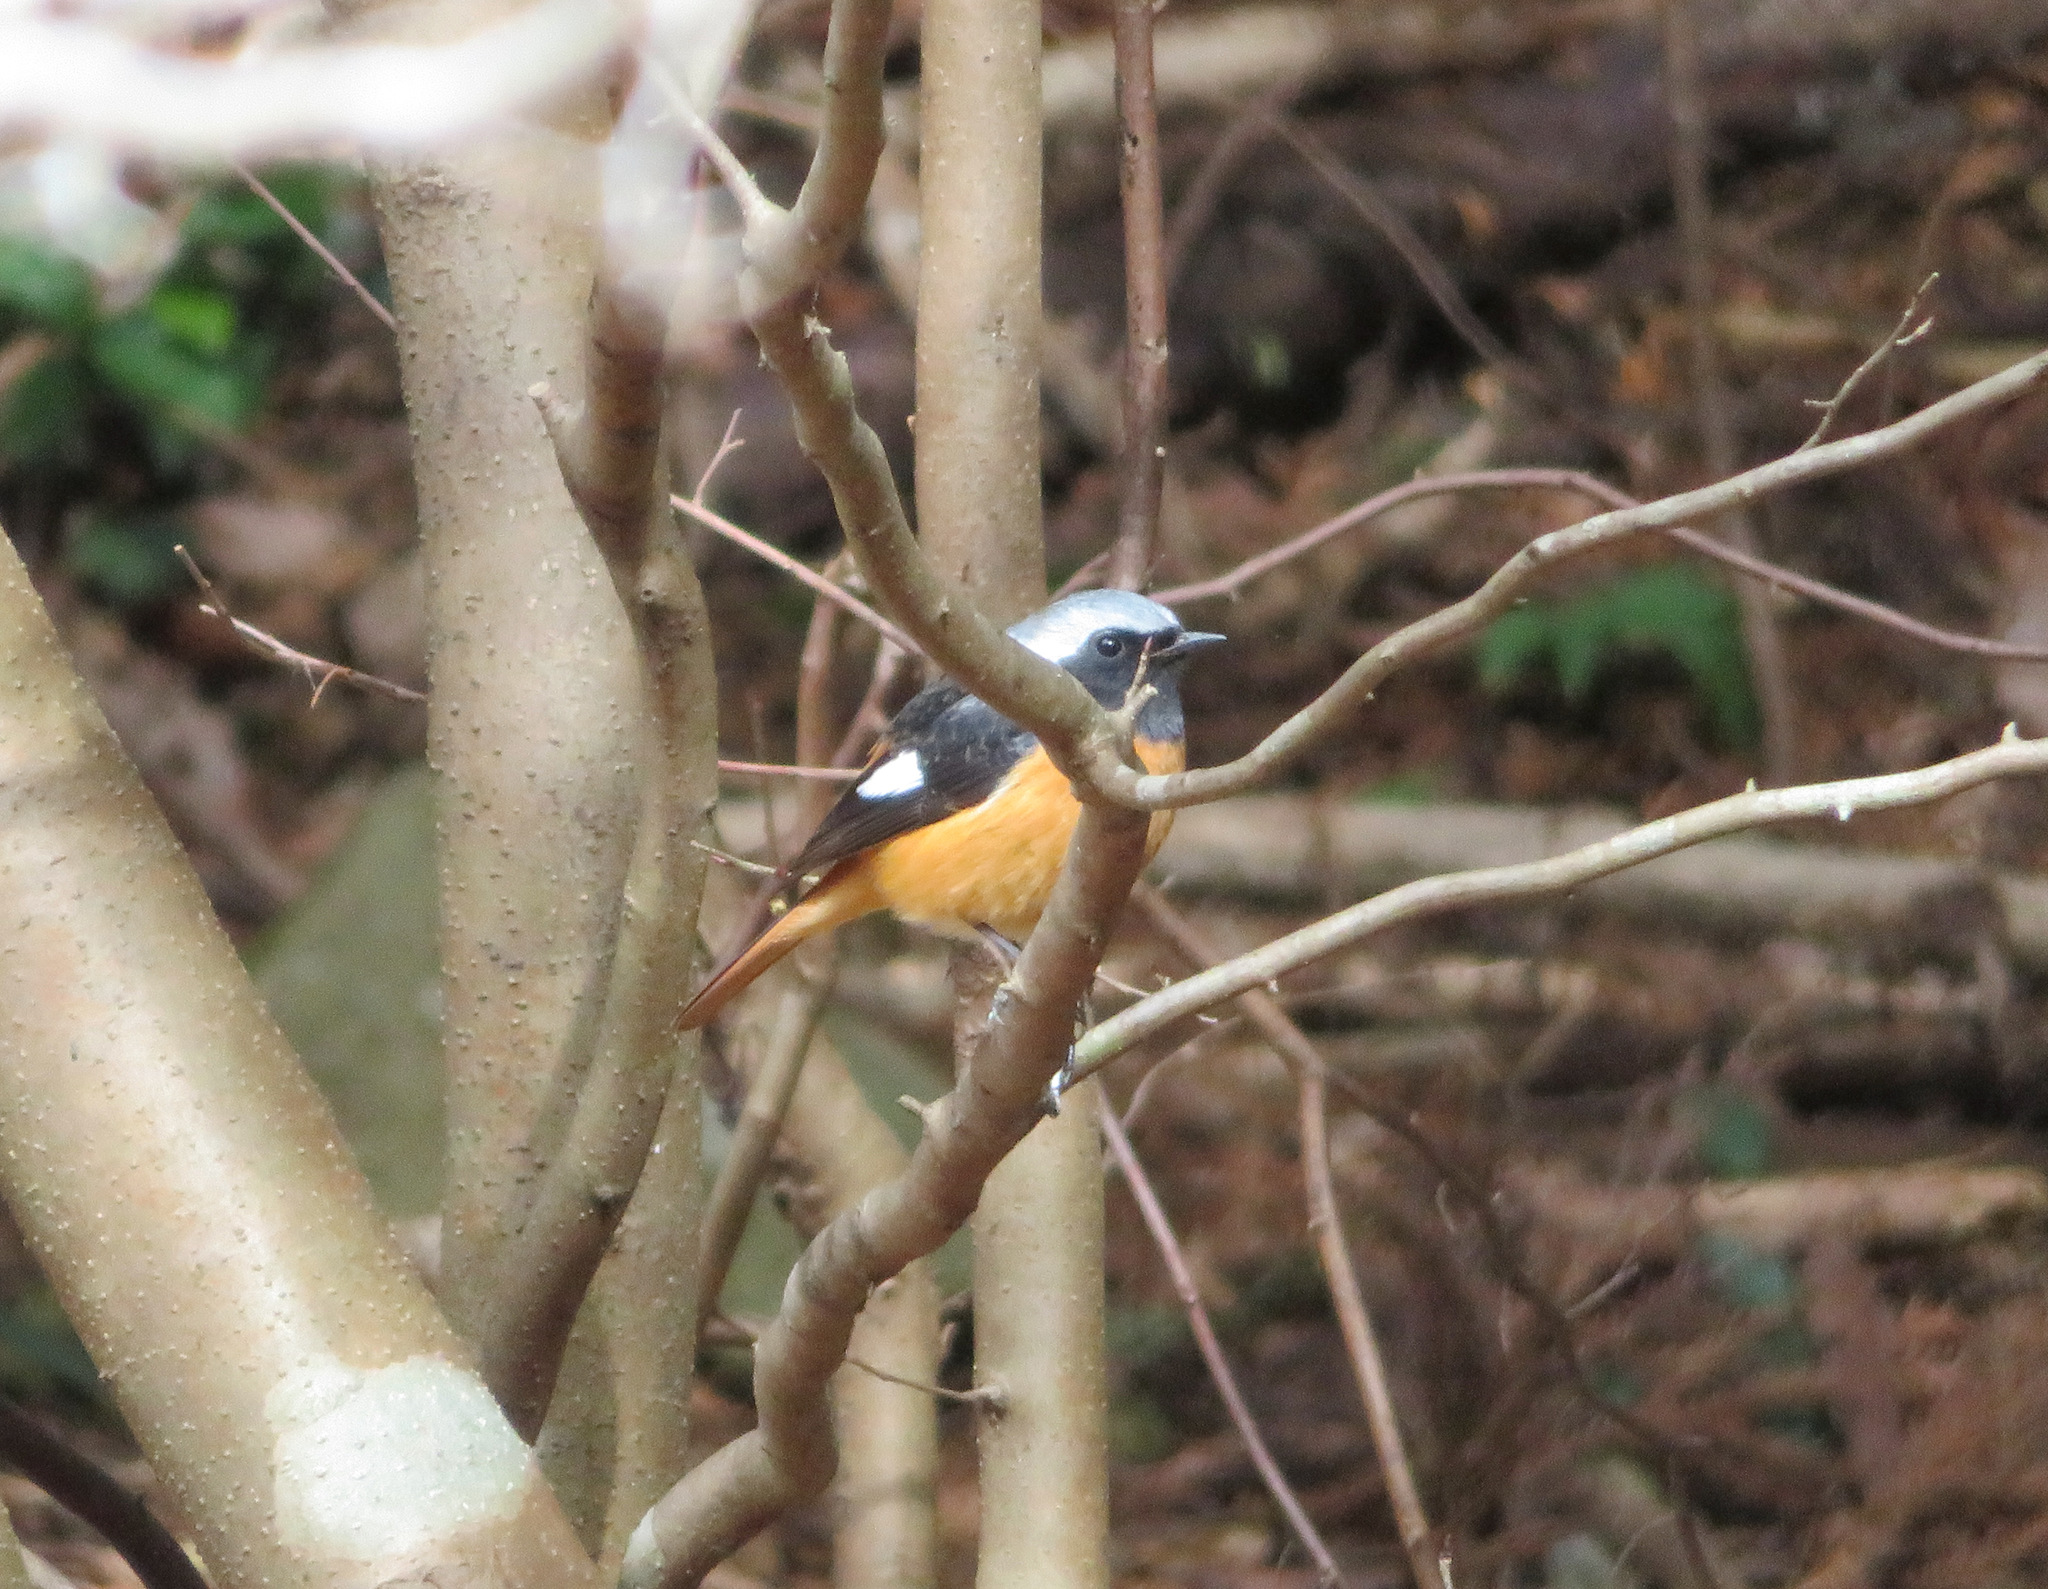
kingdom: Animalia
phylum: Chordata
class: Aves
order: Passeriformes
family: Muscicapidae
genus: Phoenicurus
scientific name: Phoenicurus auroreus
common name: Daurian redstart
